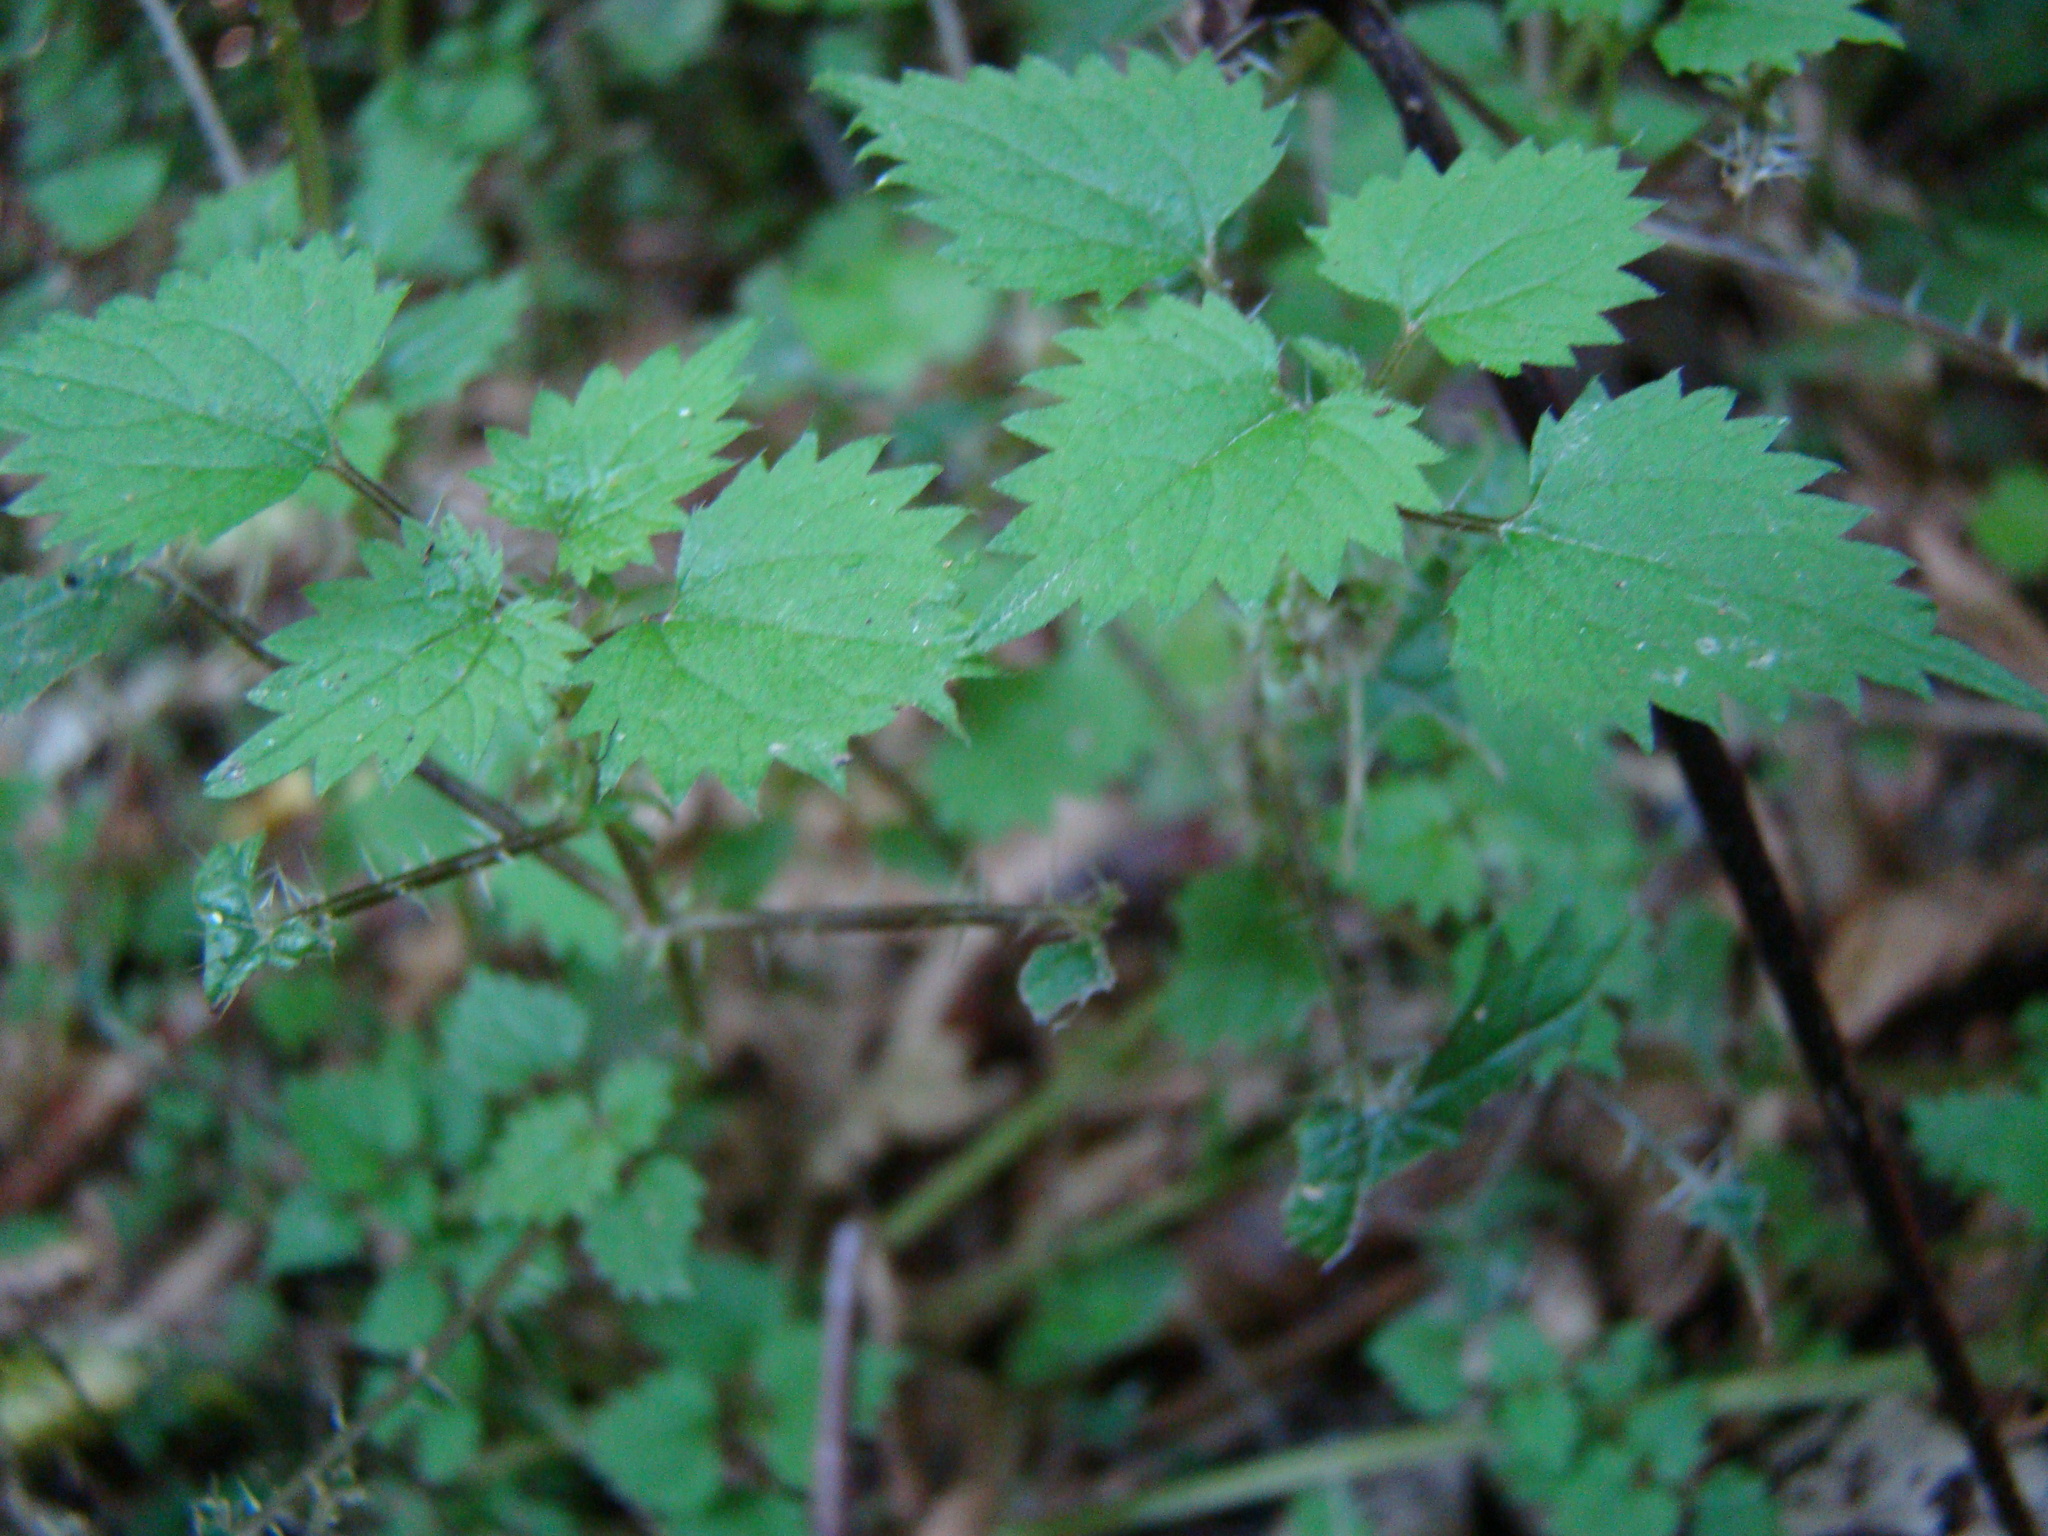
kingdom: Plantae
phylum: Tracheophyta
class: Magnoliopsida
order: Rosales
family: Urticaceae
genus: Urtica
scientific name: Urtica sykesii
